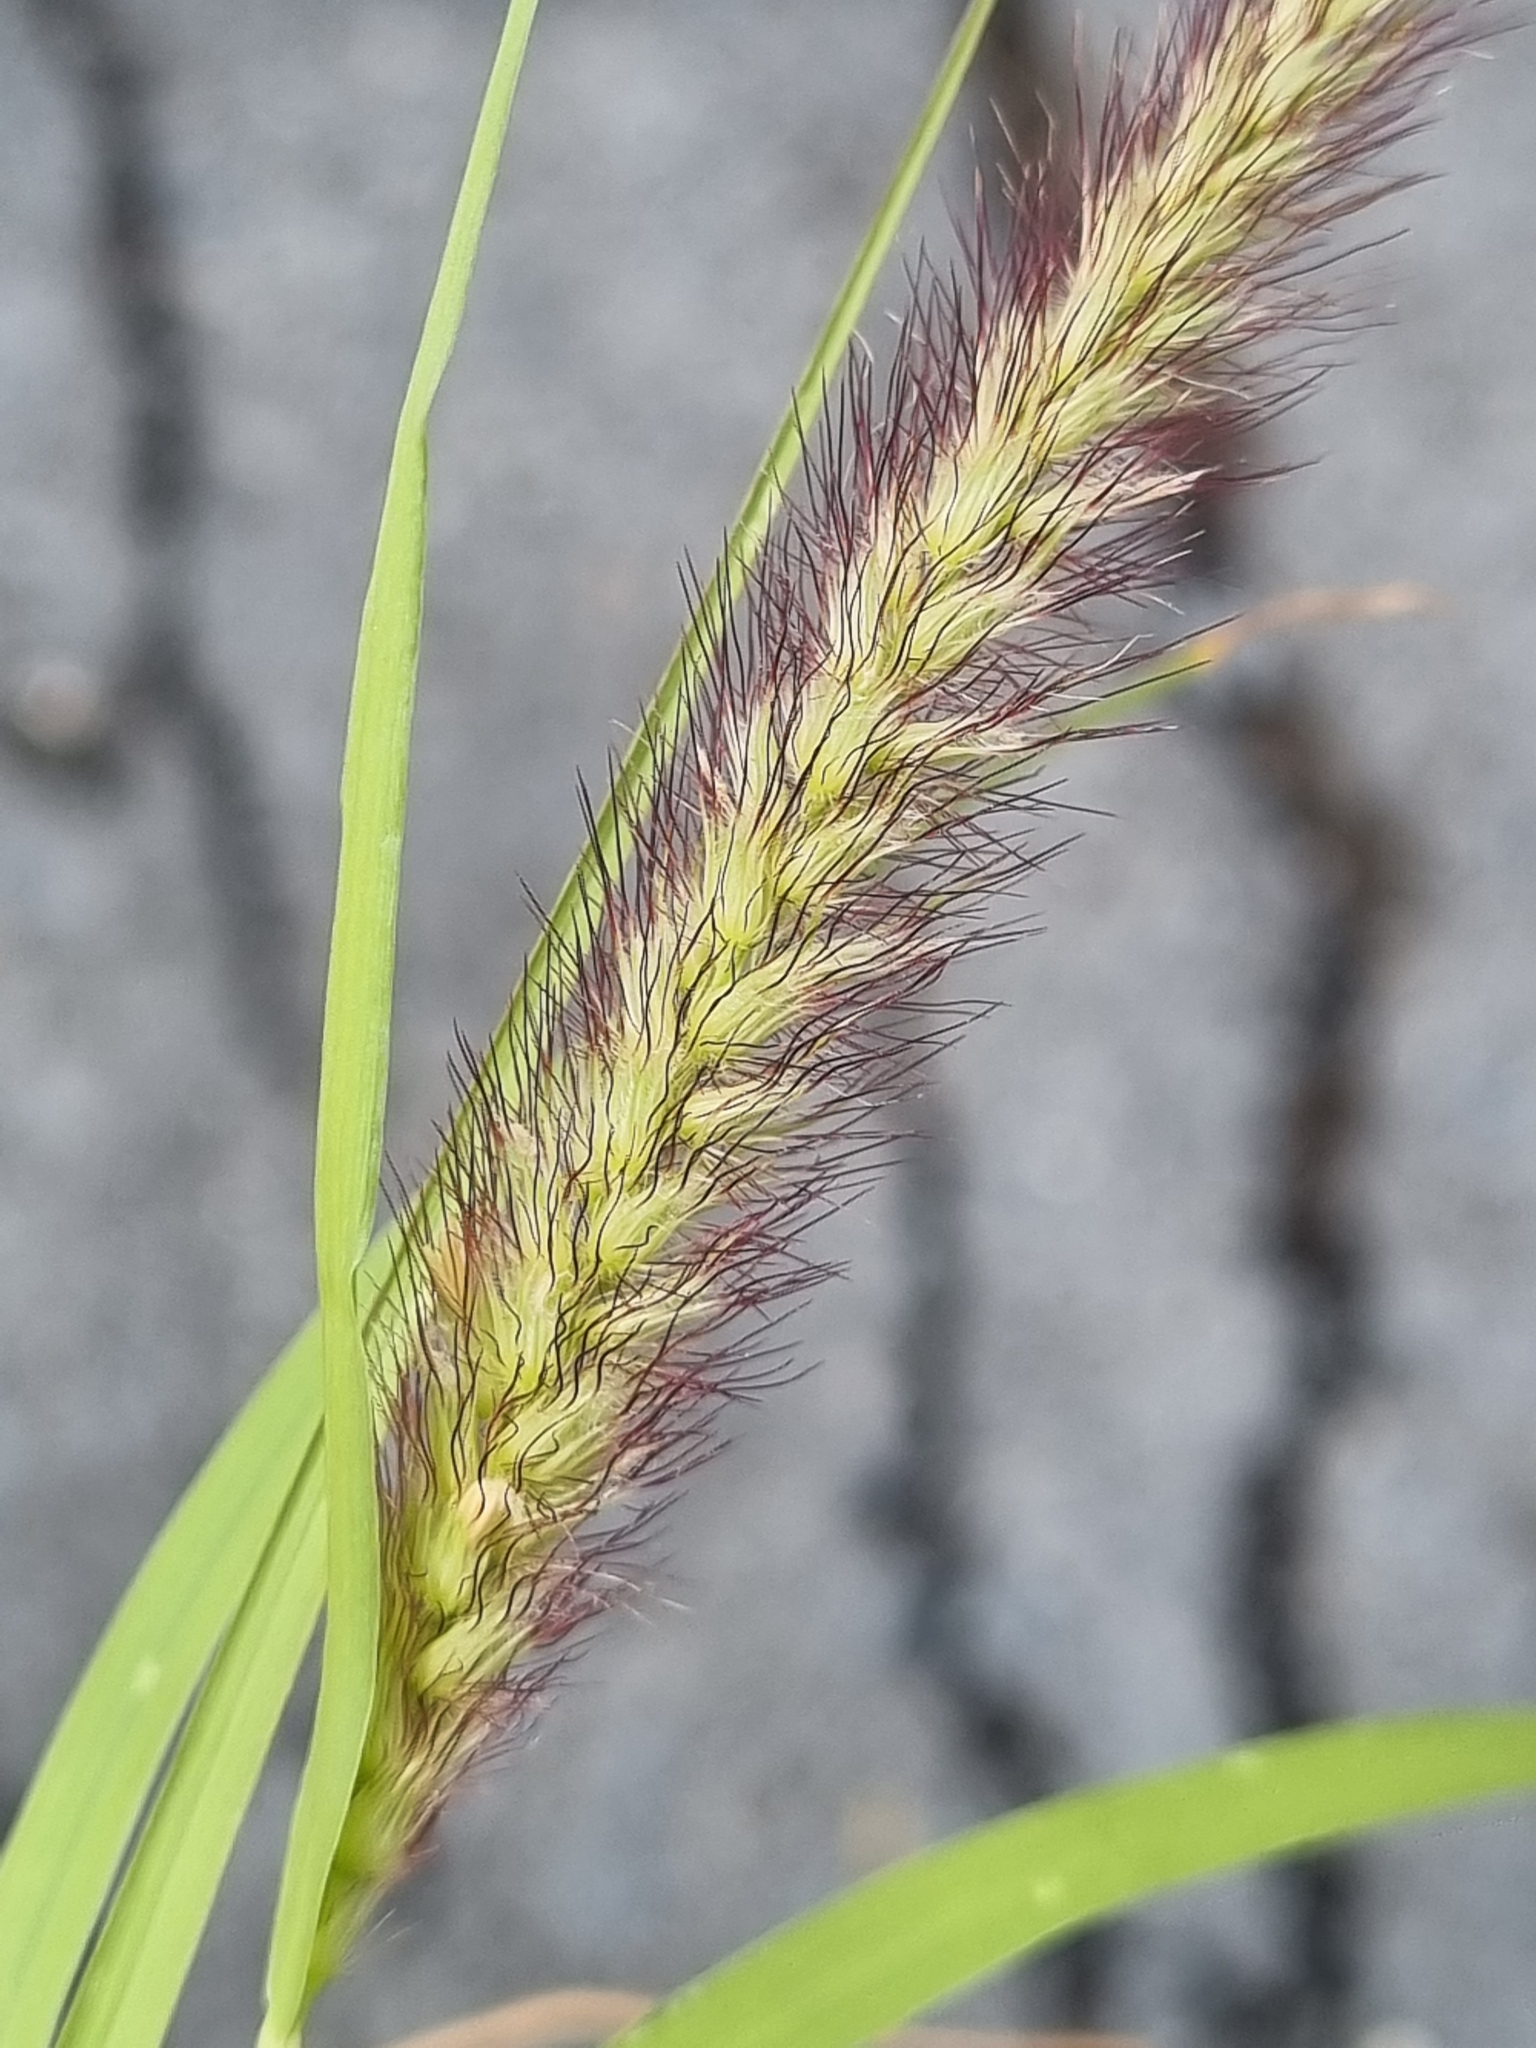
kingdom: Plantae
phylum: Tracheophyta
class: Liliopsida
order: Poales
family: Poaceae
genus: Cenchrus
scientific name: Cenchrus ciliaris
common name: Buffelgrass
